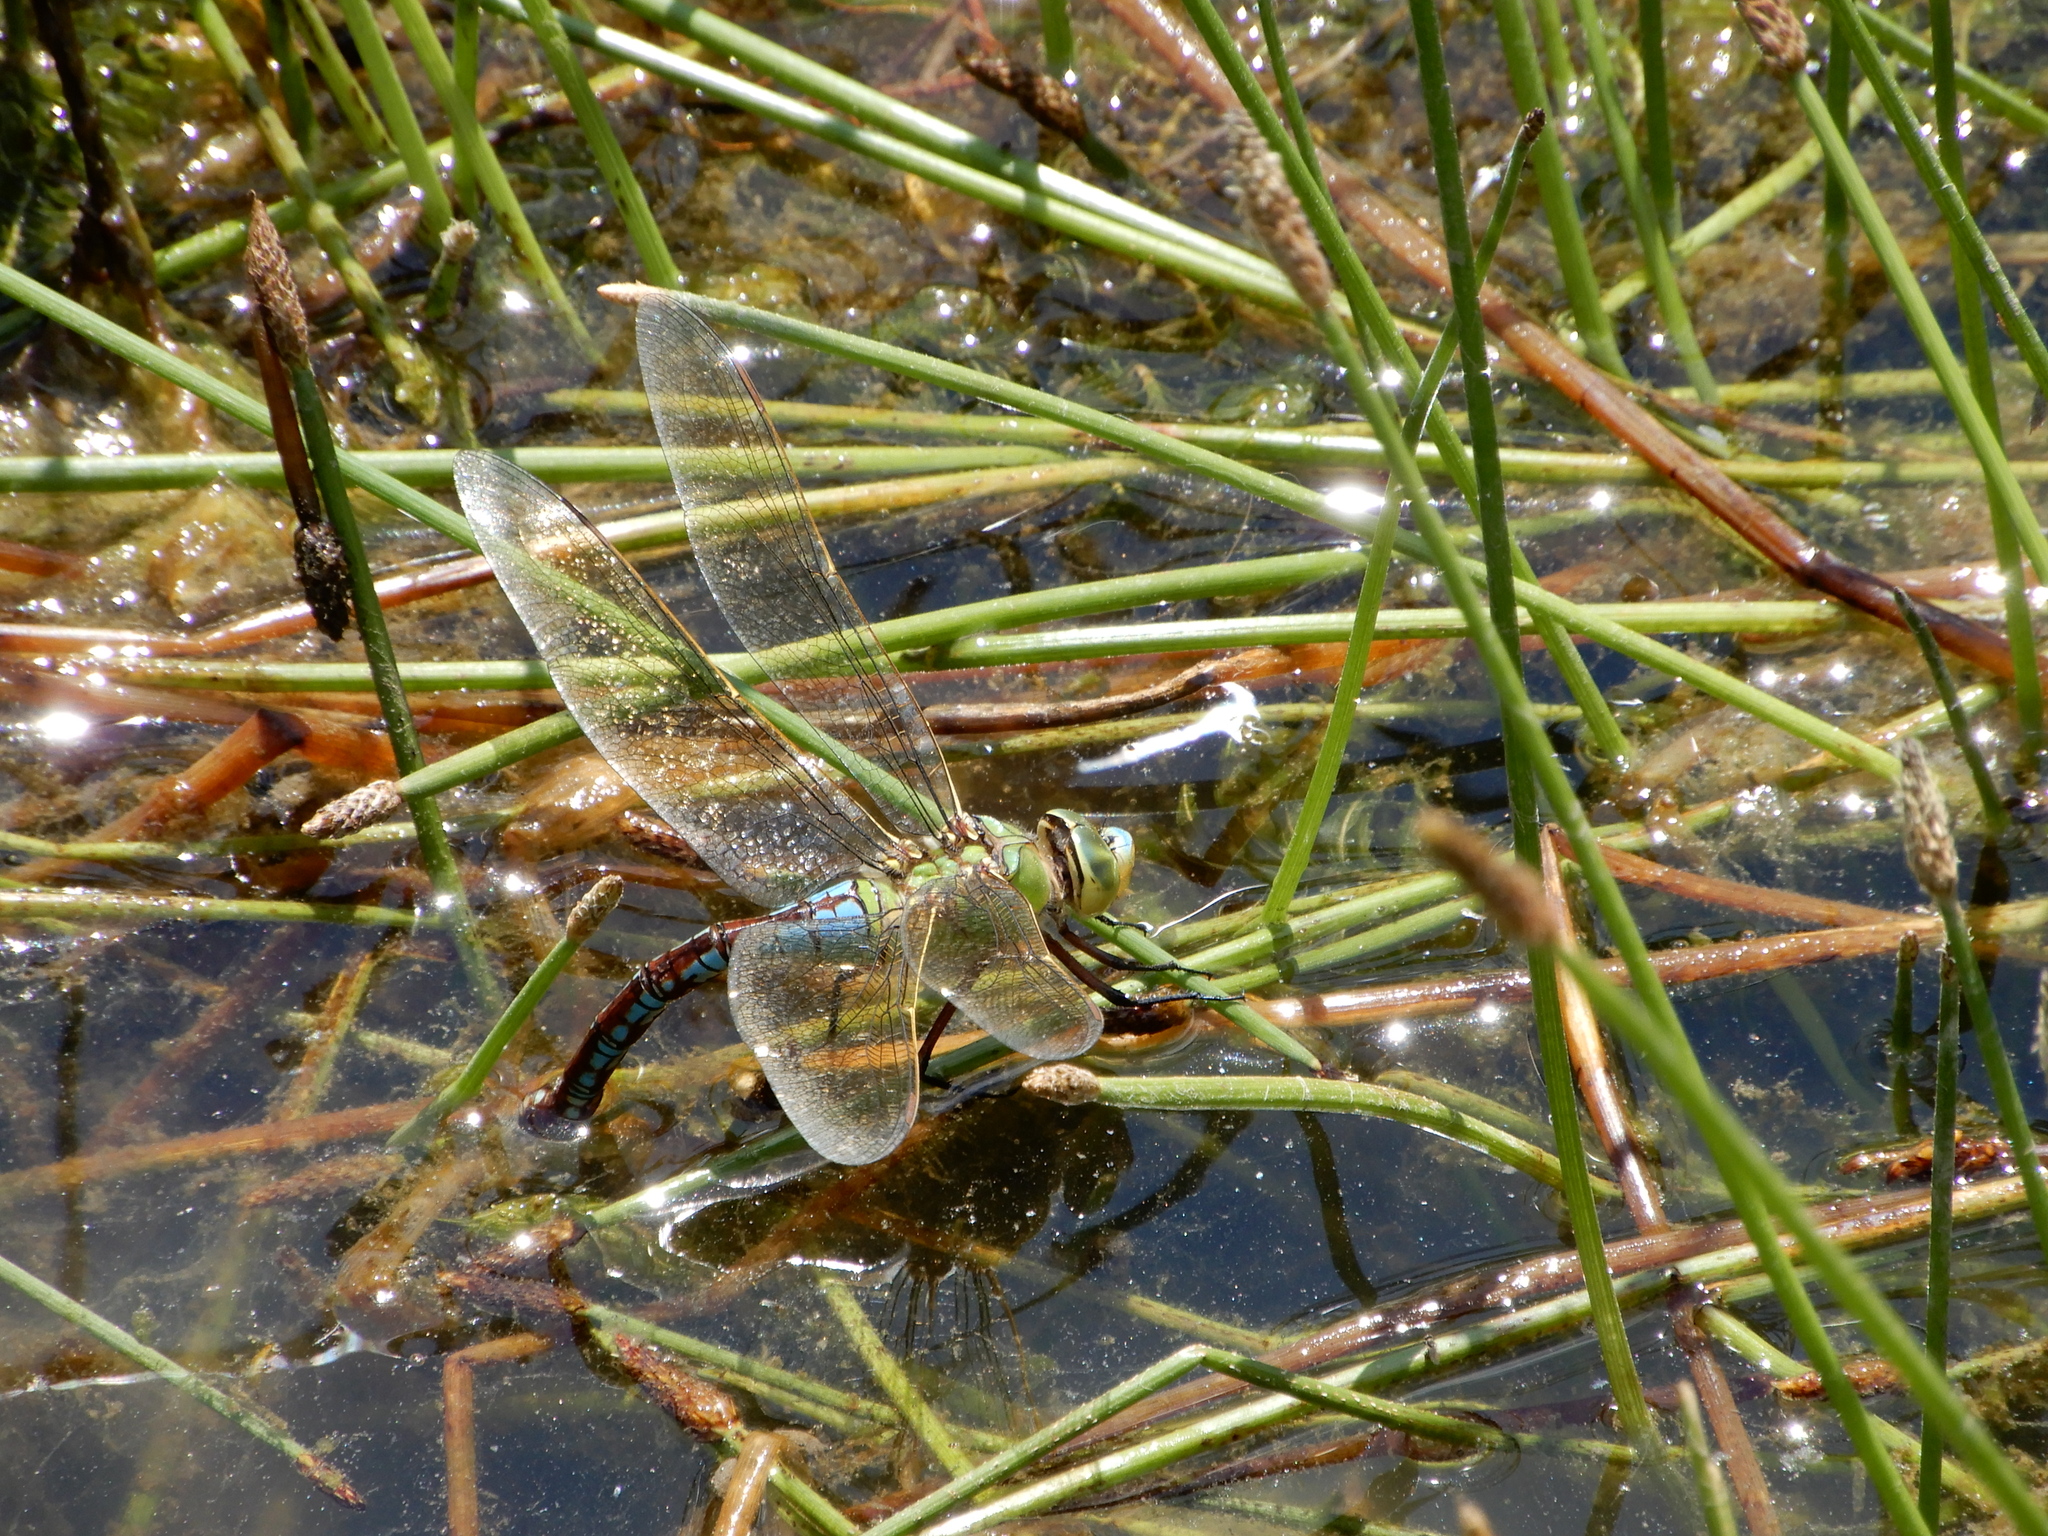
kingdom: Animalia
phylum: Arthropoda
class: Insecta
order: Odonata
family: Aeshnidae
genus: Anax
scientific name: Anax imperator
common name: Emperor dragonfly
